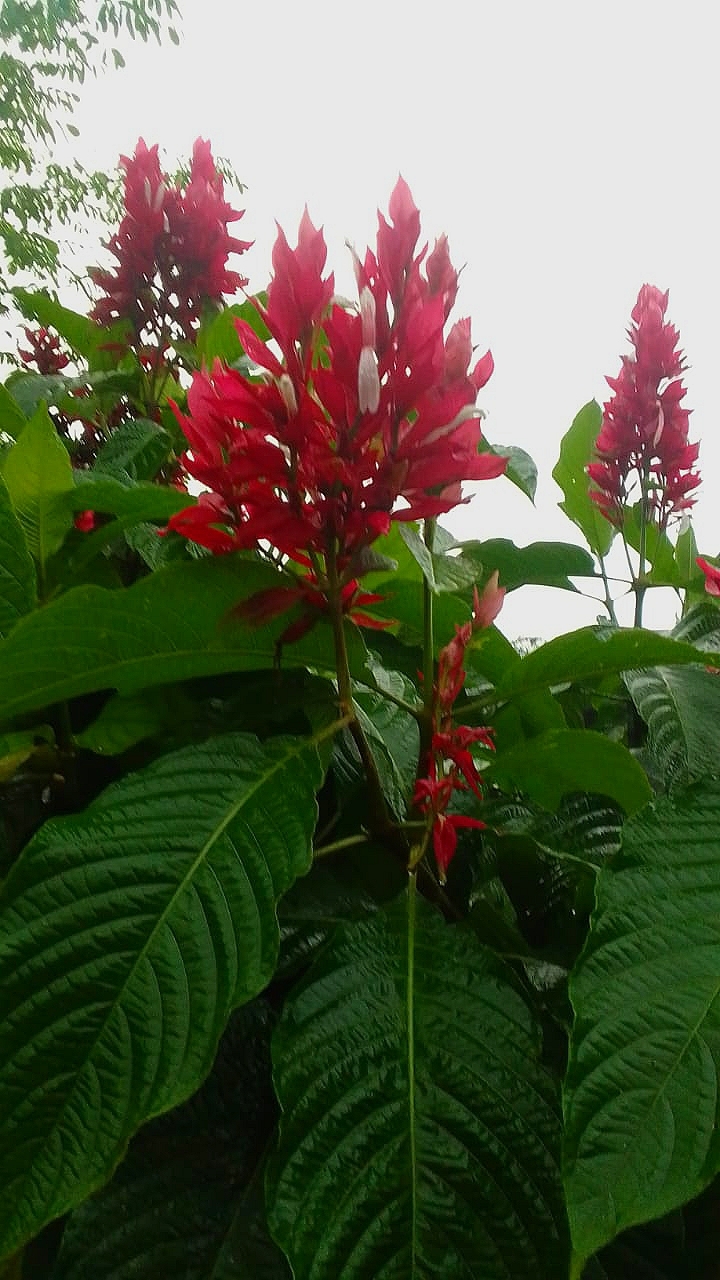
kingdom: Plantae
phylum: Tracheophyta
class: Magnoliopsida
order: Lamiales
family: Acanthaceae
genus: Megaskepasma
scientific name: Megaskepasma erythrochlamys
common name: Brazilian red-cloak
